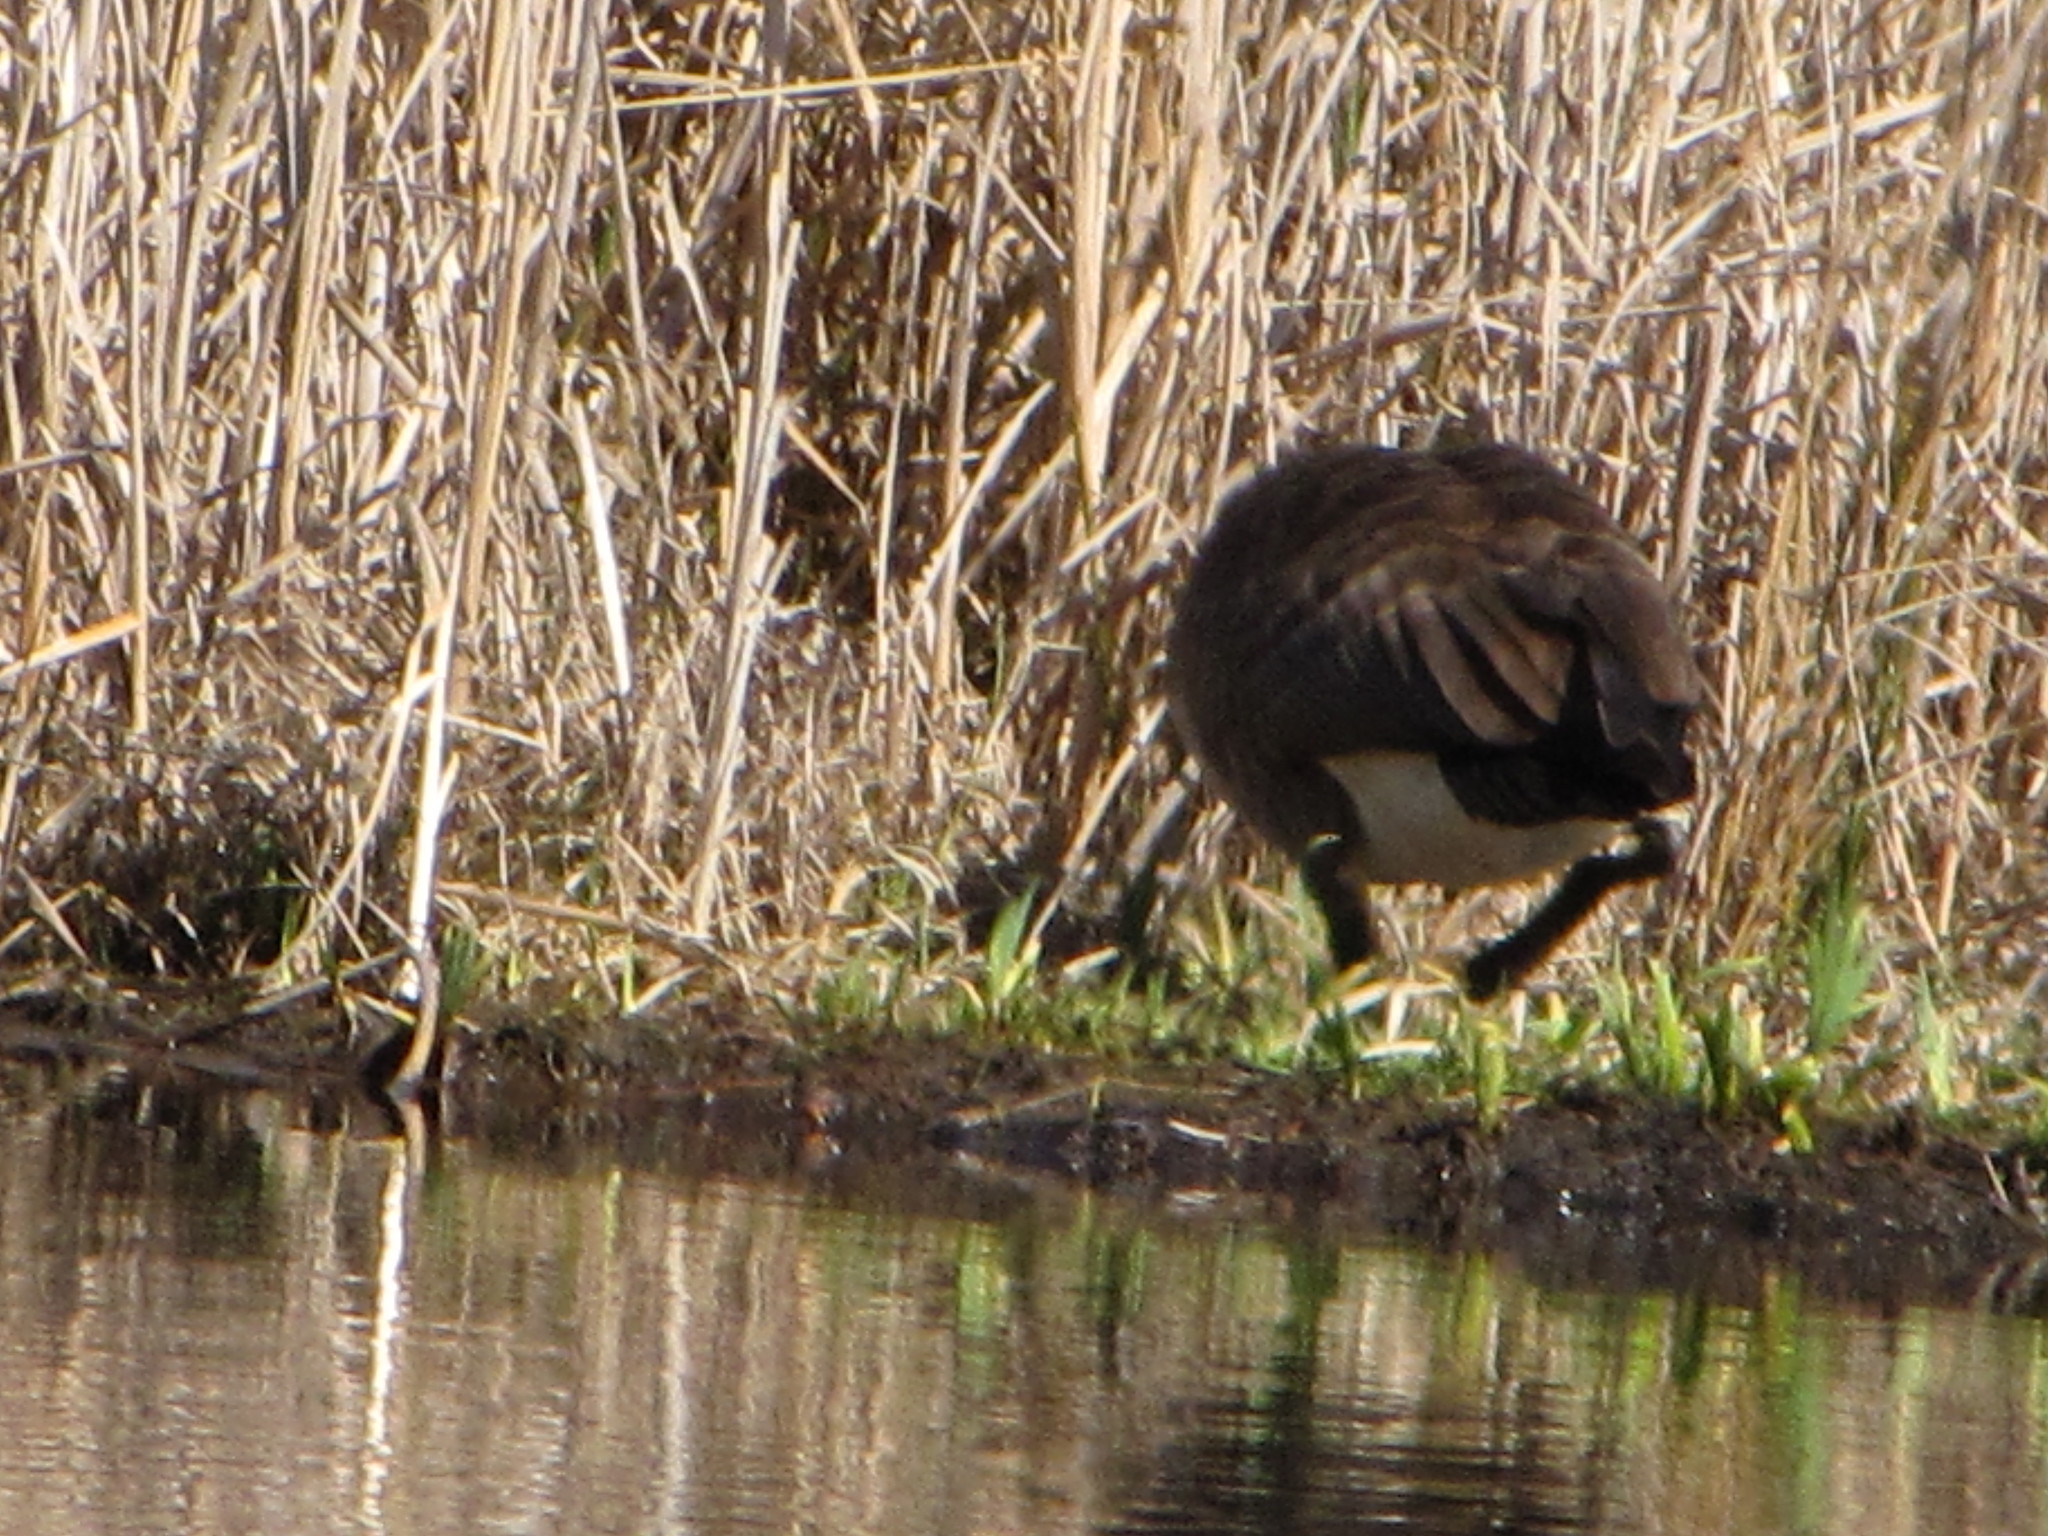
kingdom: Animalia
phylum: Chordata
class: Aves
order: Anseriformes
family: Anatidae
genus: Branta
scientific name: Branta canadensis
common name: Canada goose
